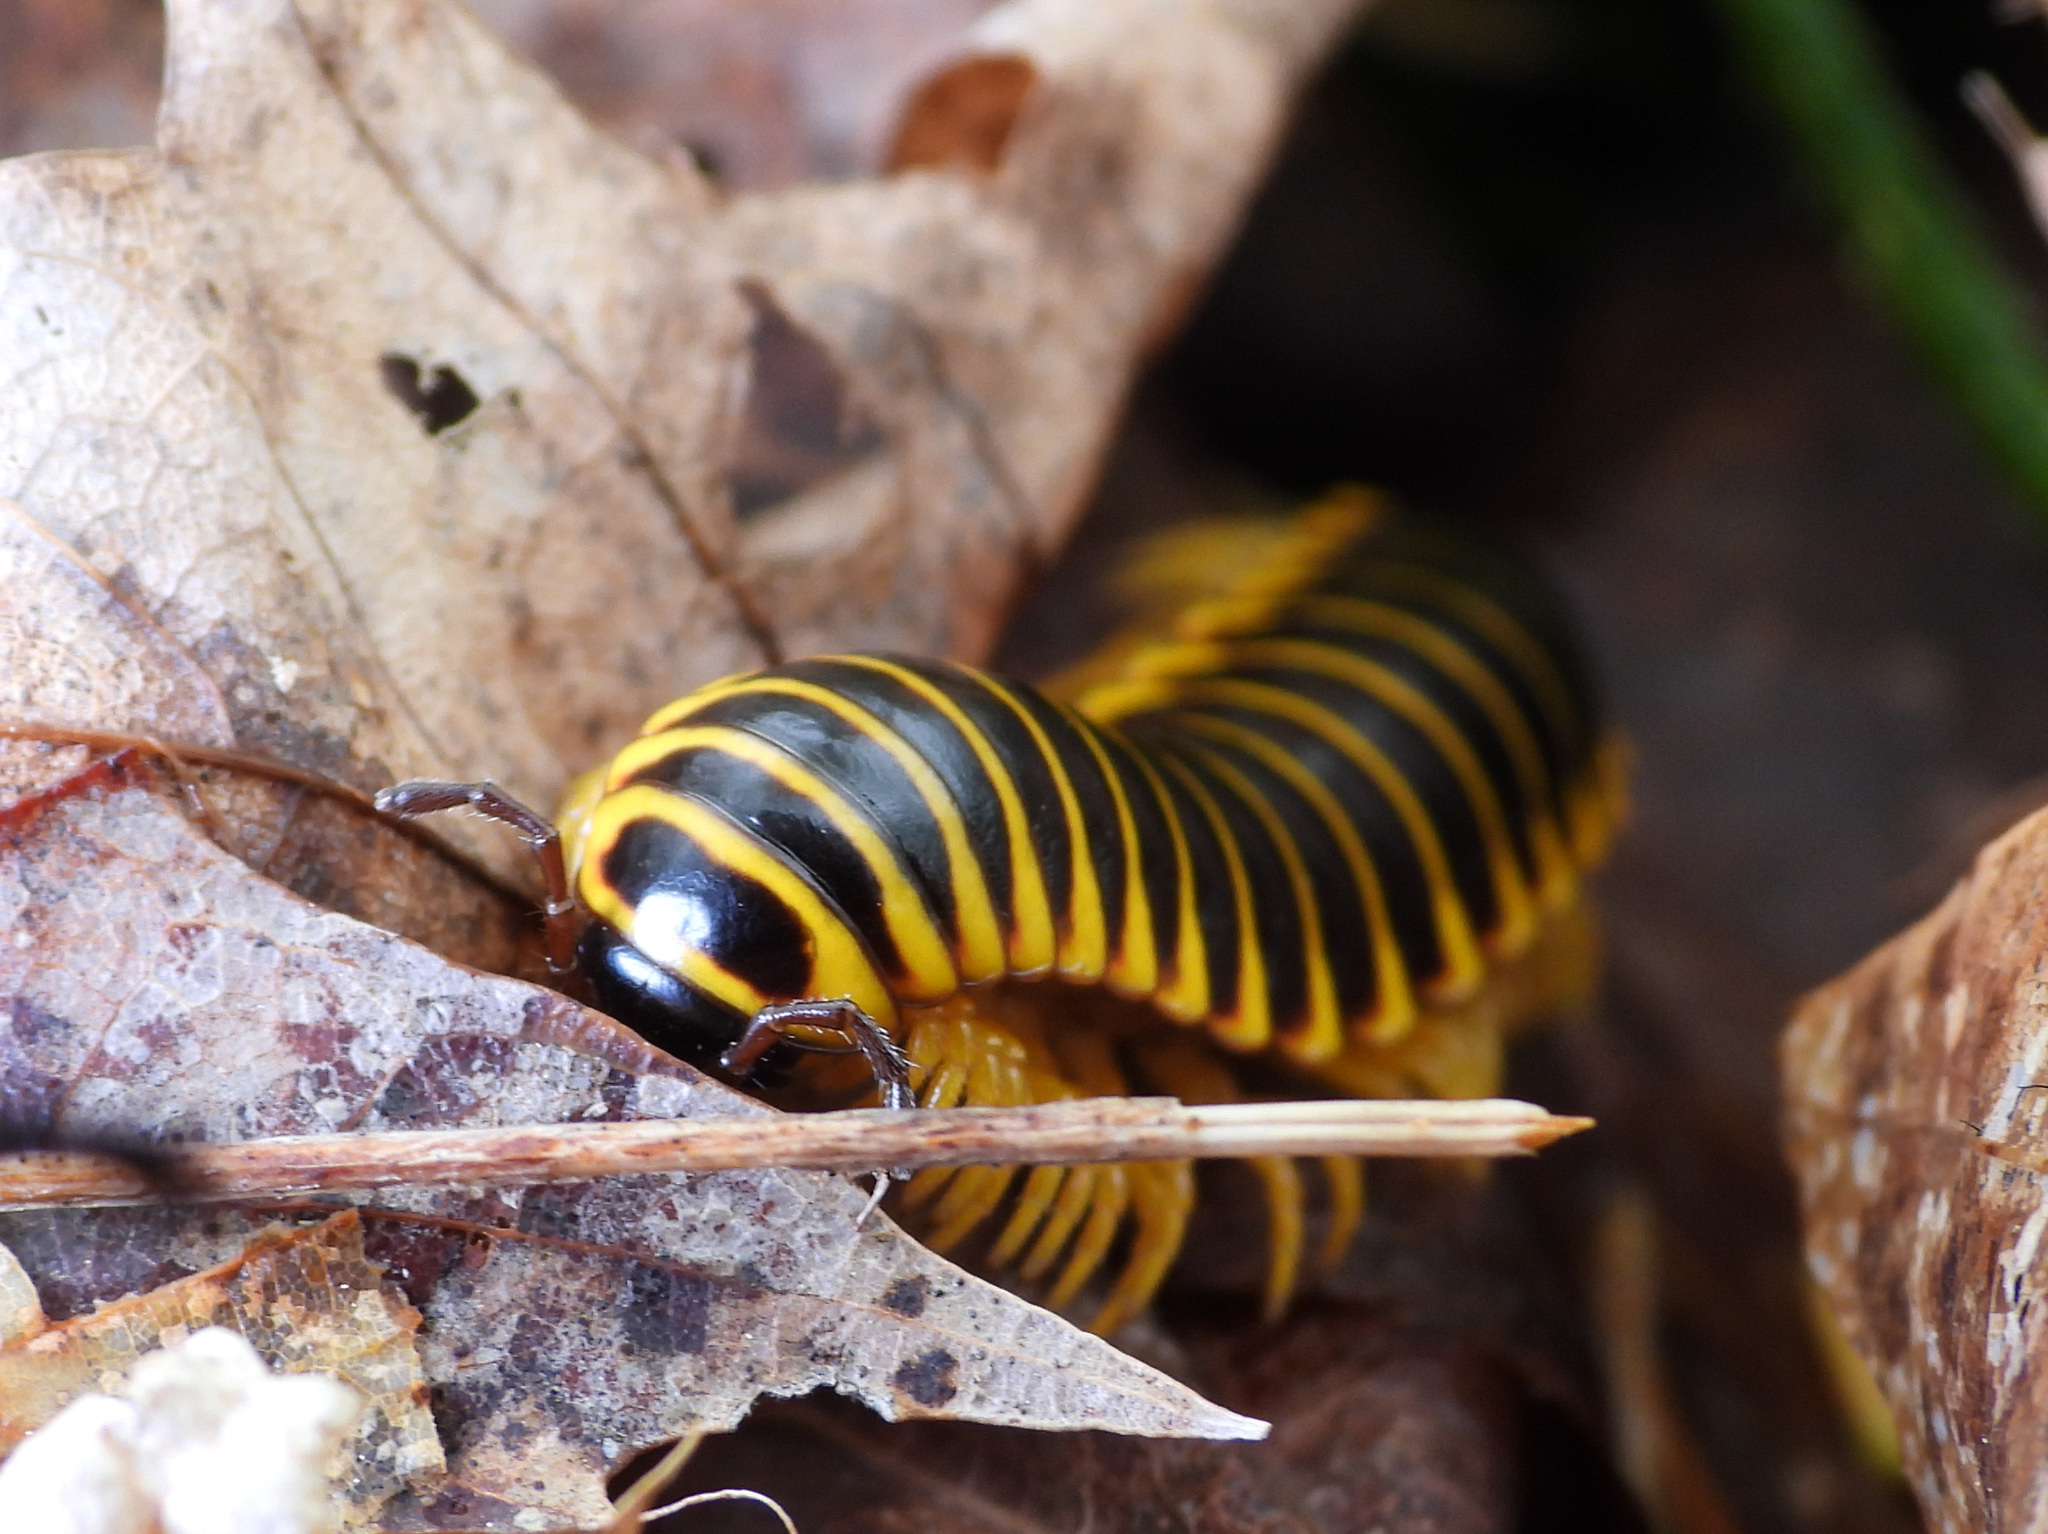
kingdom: Animalia
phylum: Arthropoda
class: Diplopoda
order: Polydesmida
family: Xystodesmidae
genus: Apheloria
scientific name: Apheloria virginiensis
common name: Black-and-gold flat millipede
